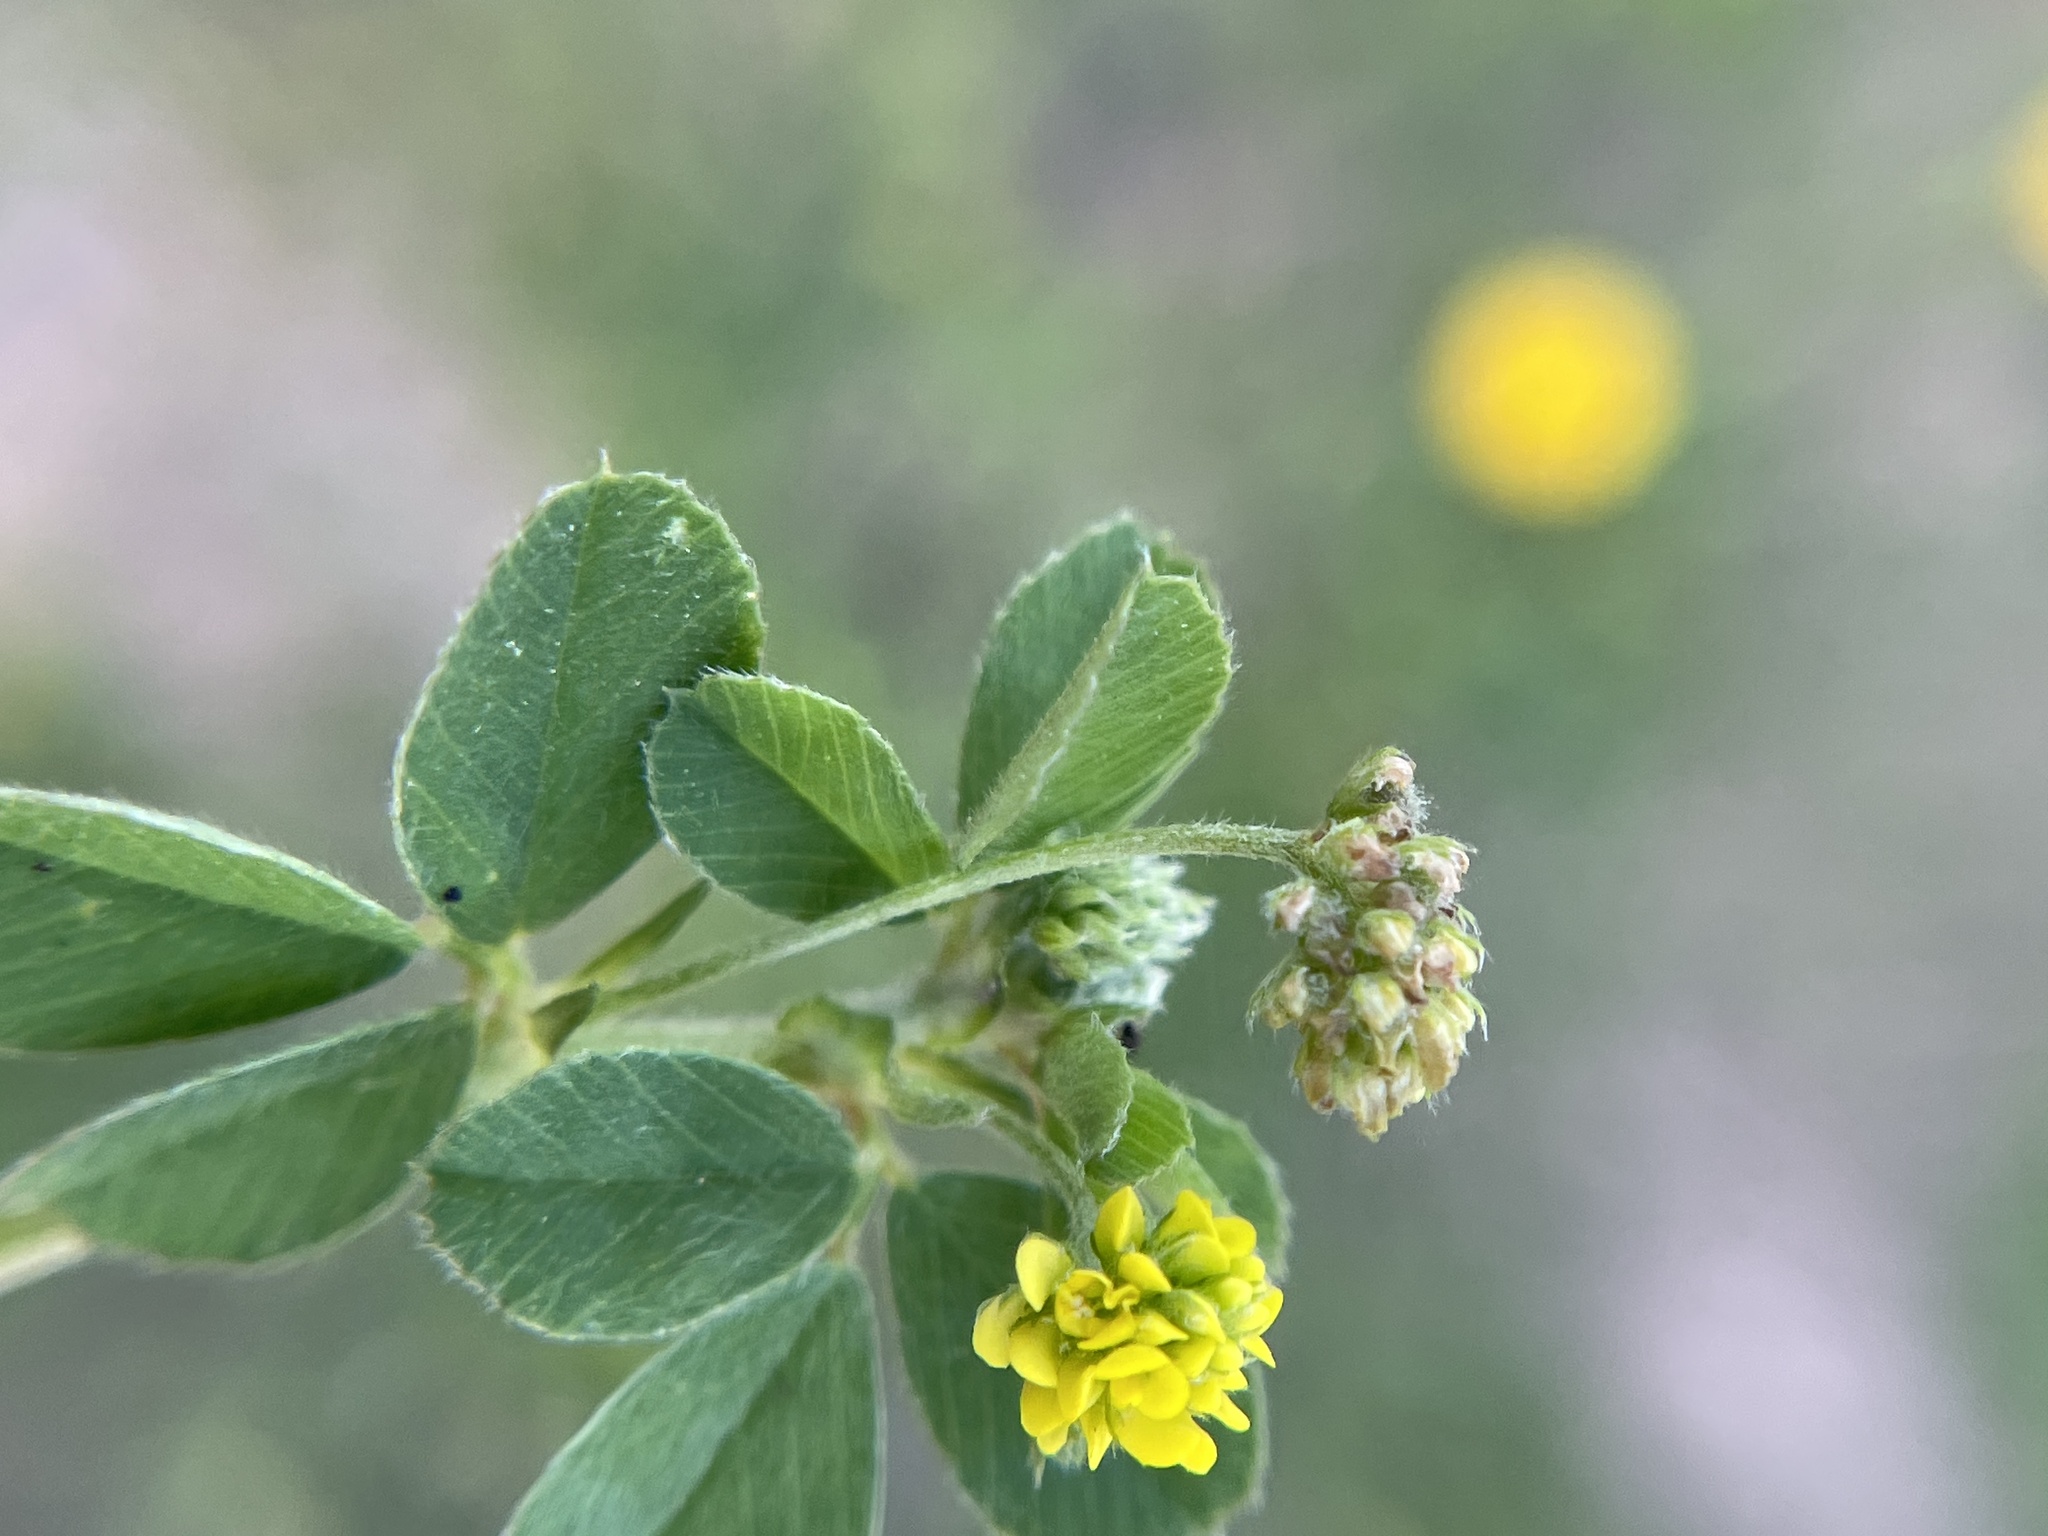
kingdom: Plantae
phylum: Tracheophyta
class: Magnoliopsida
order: Fabales
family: Fabaceae
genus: Medicago
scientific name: Medicago lupulina
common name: Black medick
